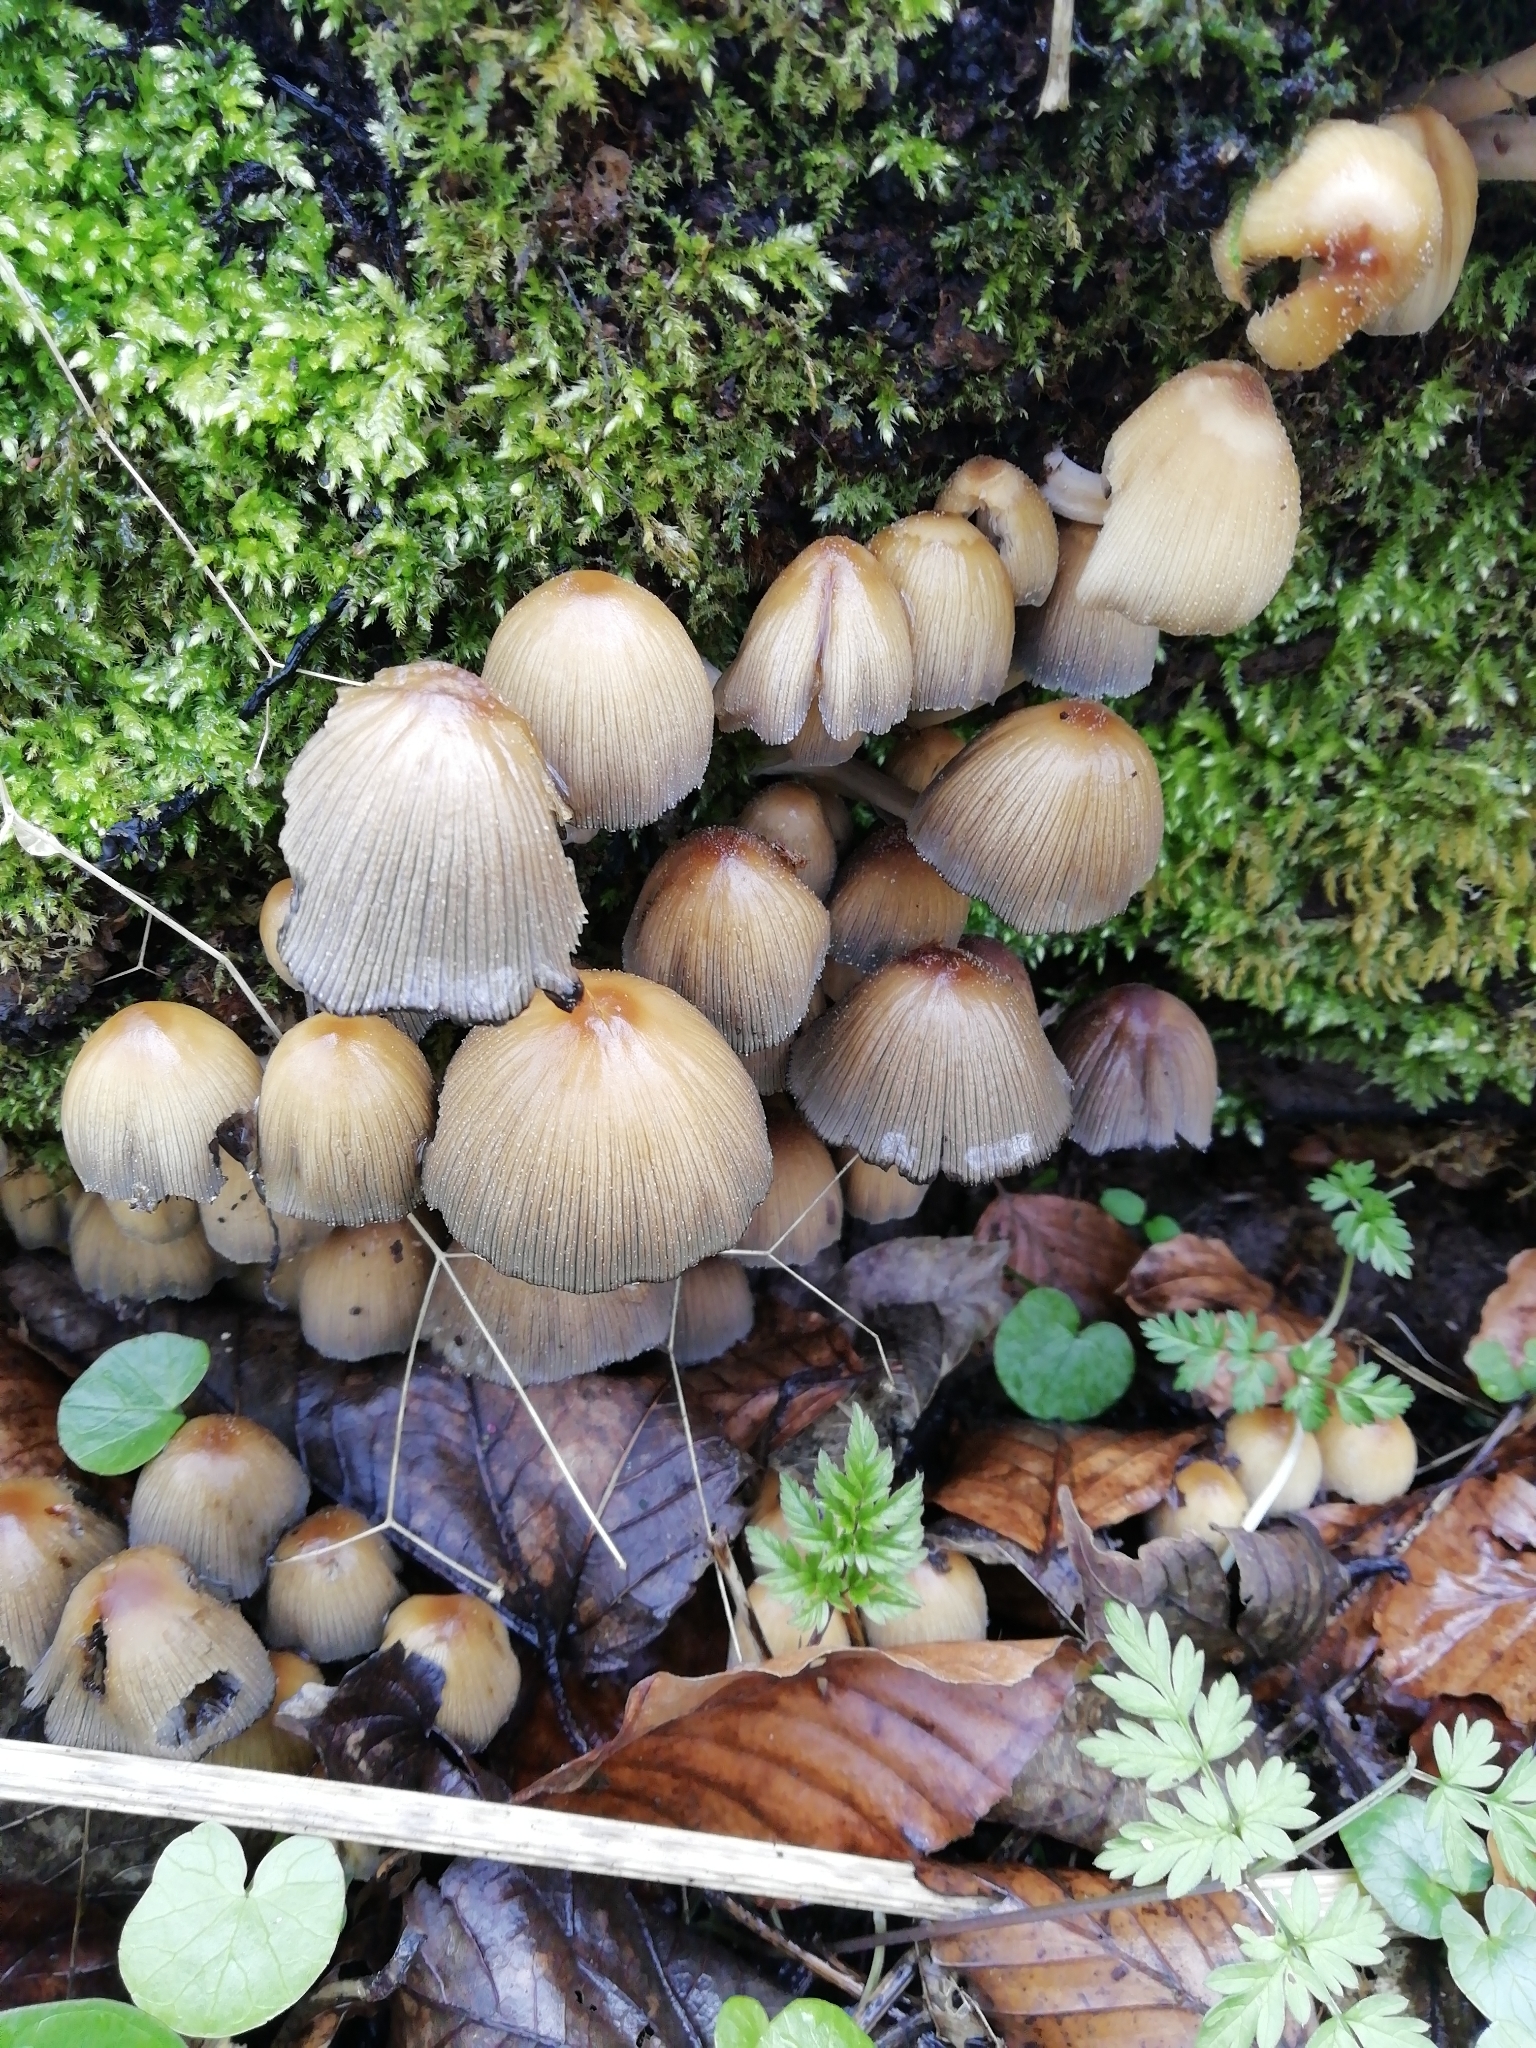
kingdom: Fungi
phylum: Basidiomycota
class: Agaricomycetes
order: Agaricales
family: Psathyrellaceae
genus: Coprinellus
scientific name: Coprinellus micaceus
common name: Glistening ink-cap
